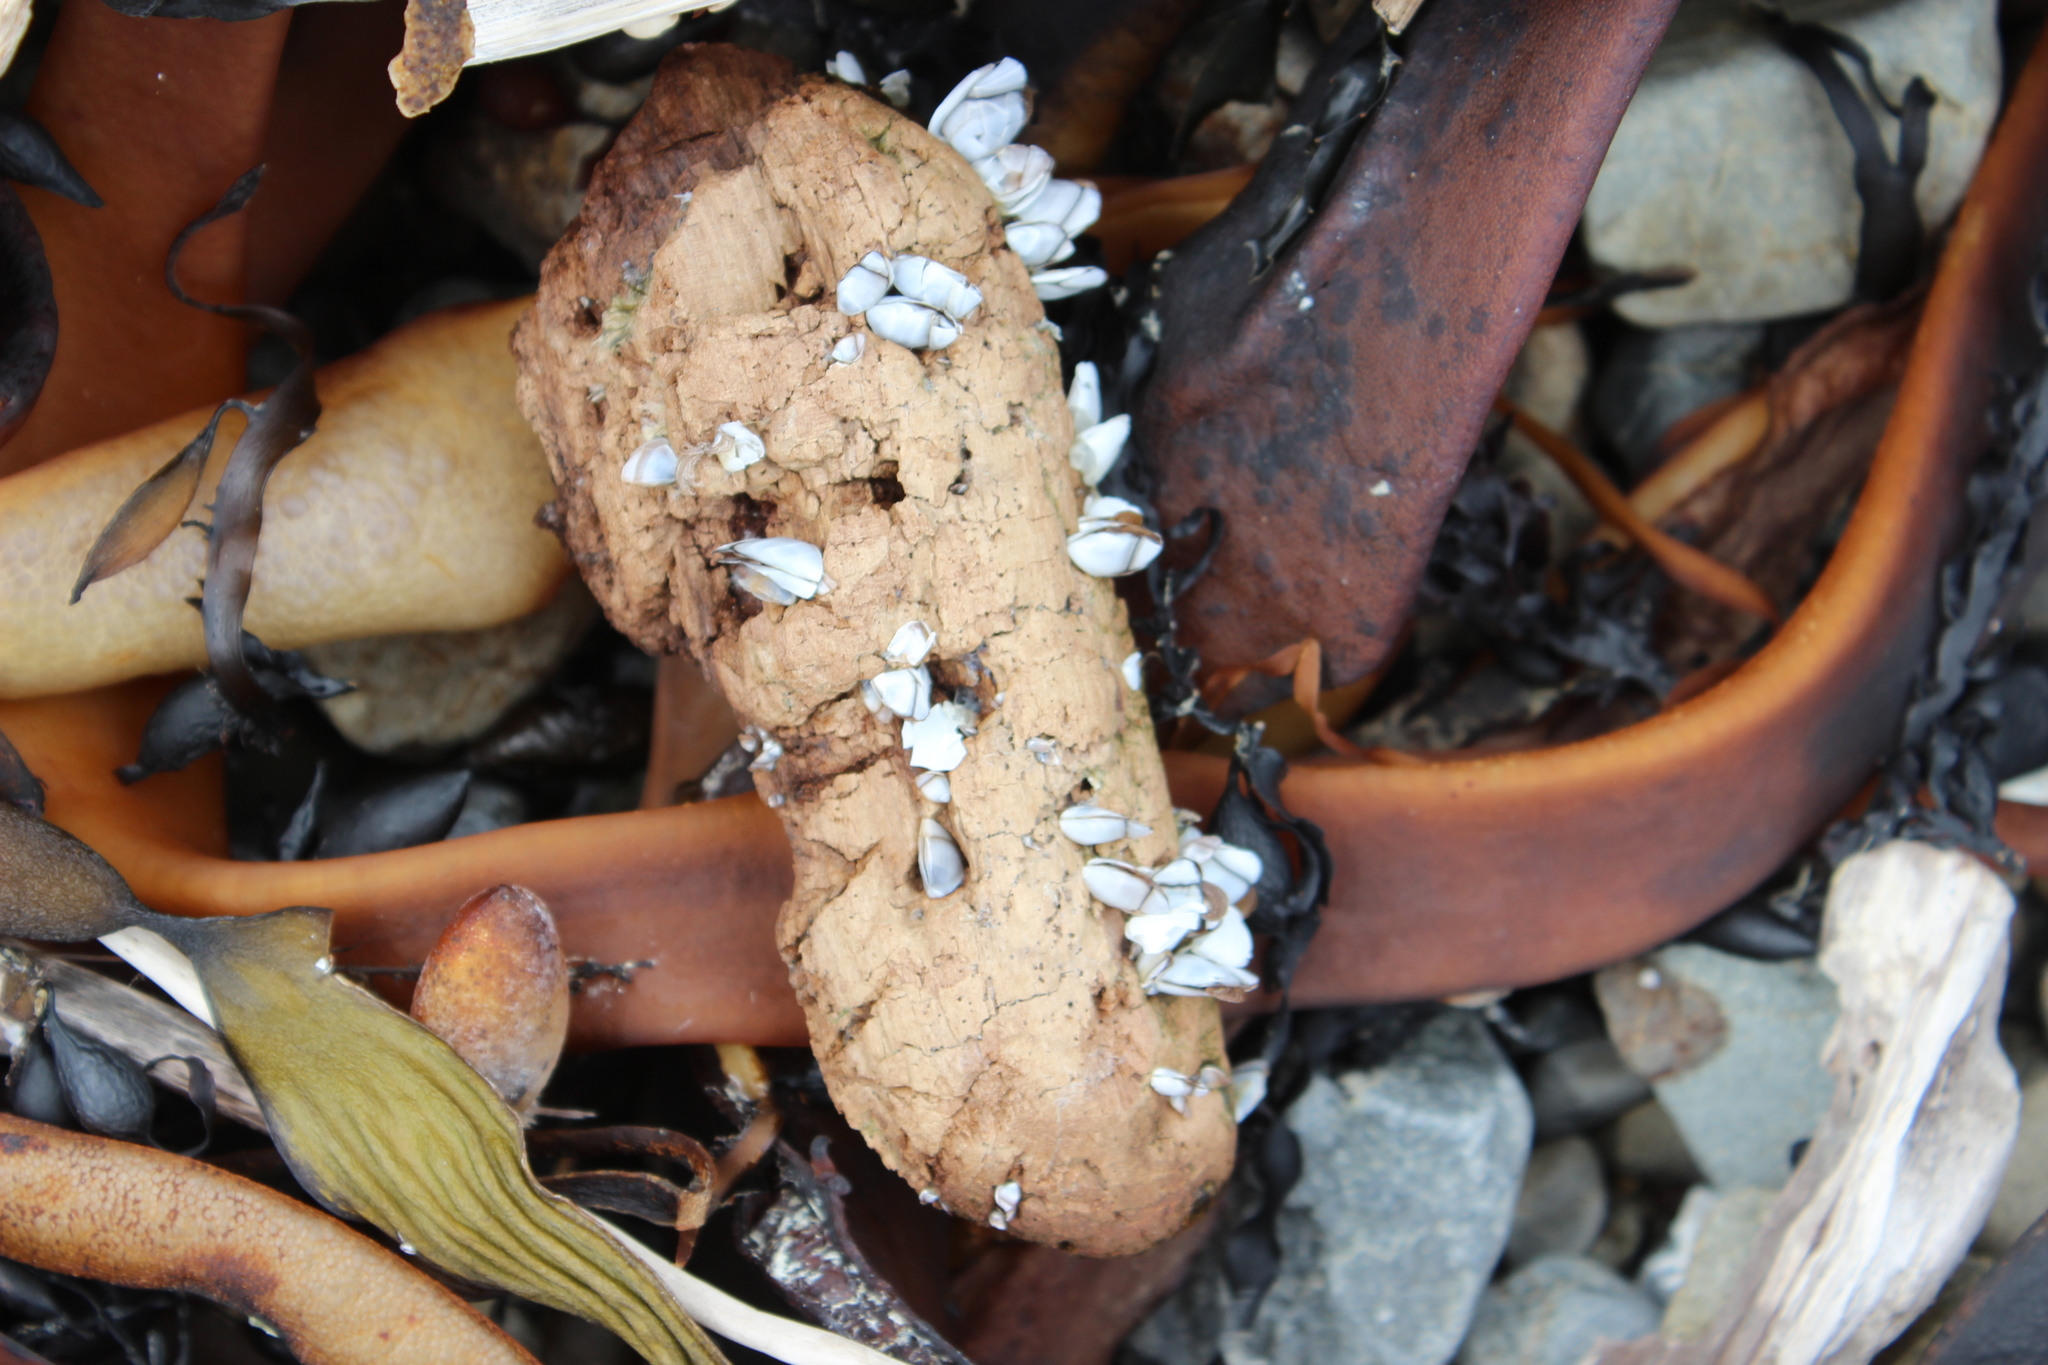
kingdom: Animalia
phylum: Arthropoda
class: Maxillopoda
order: Pedunculata
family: Lepadidae
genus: Lepas
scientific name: Lepas australis
